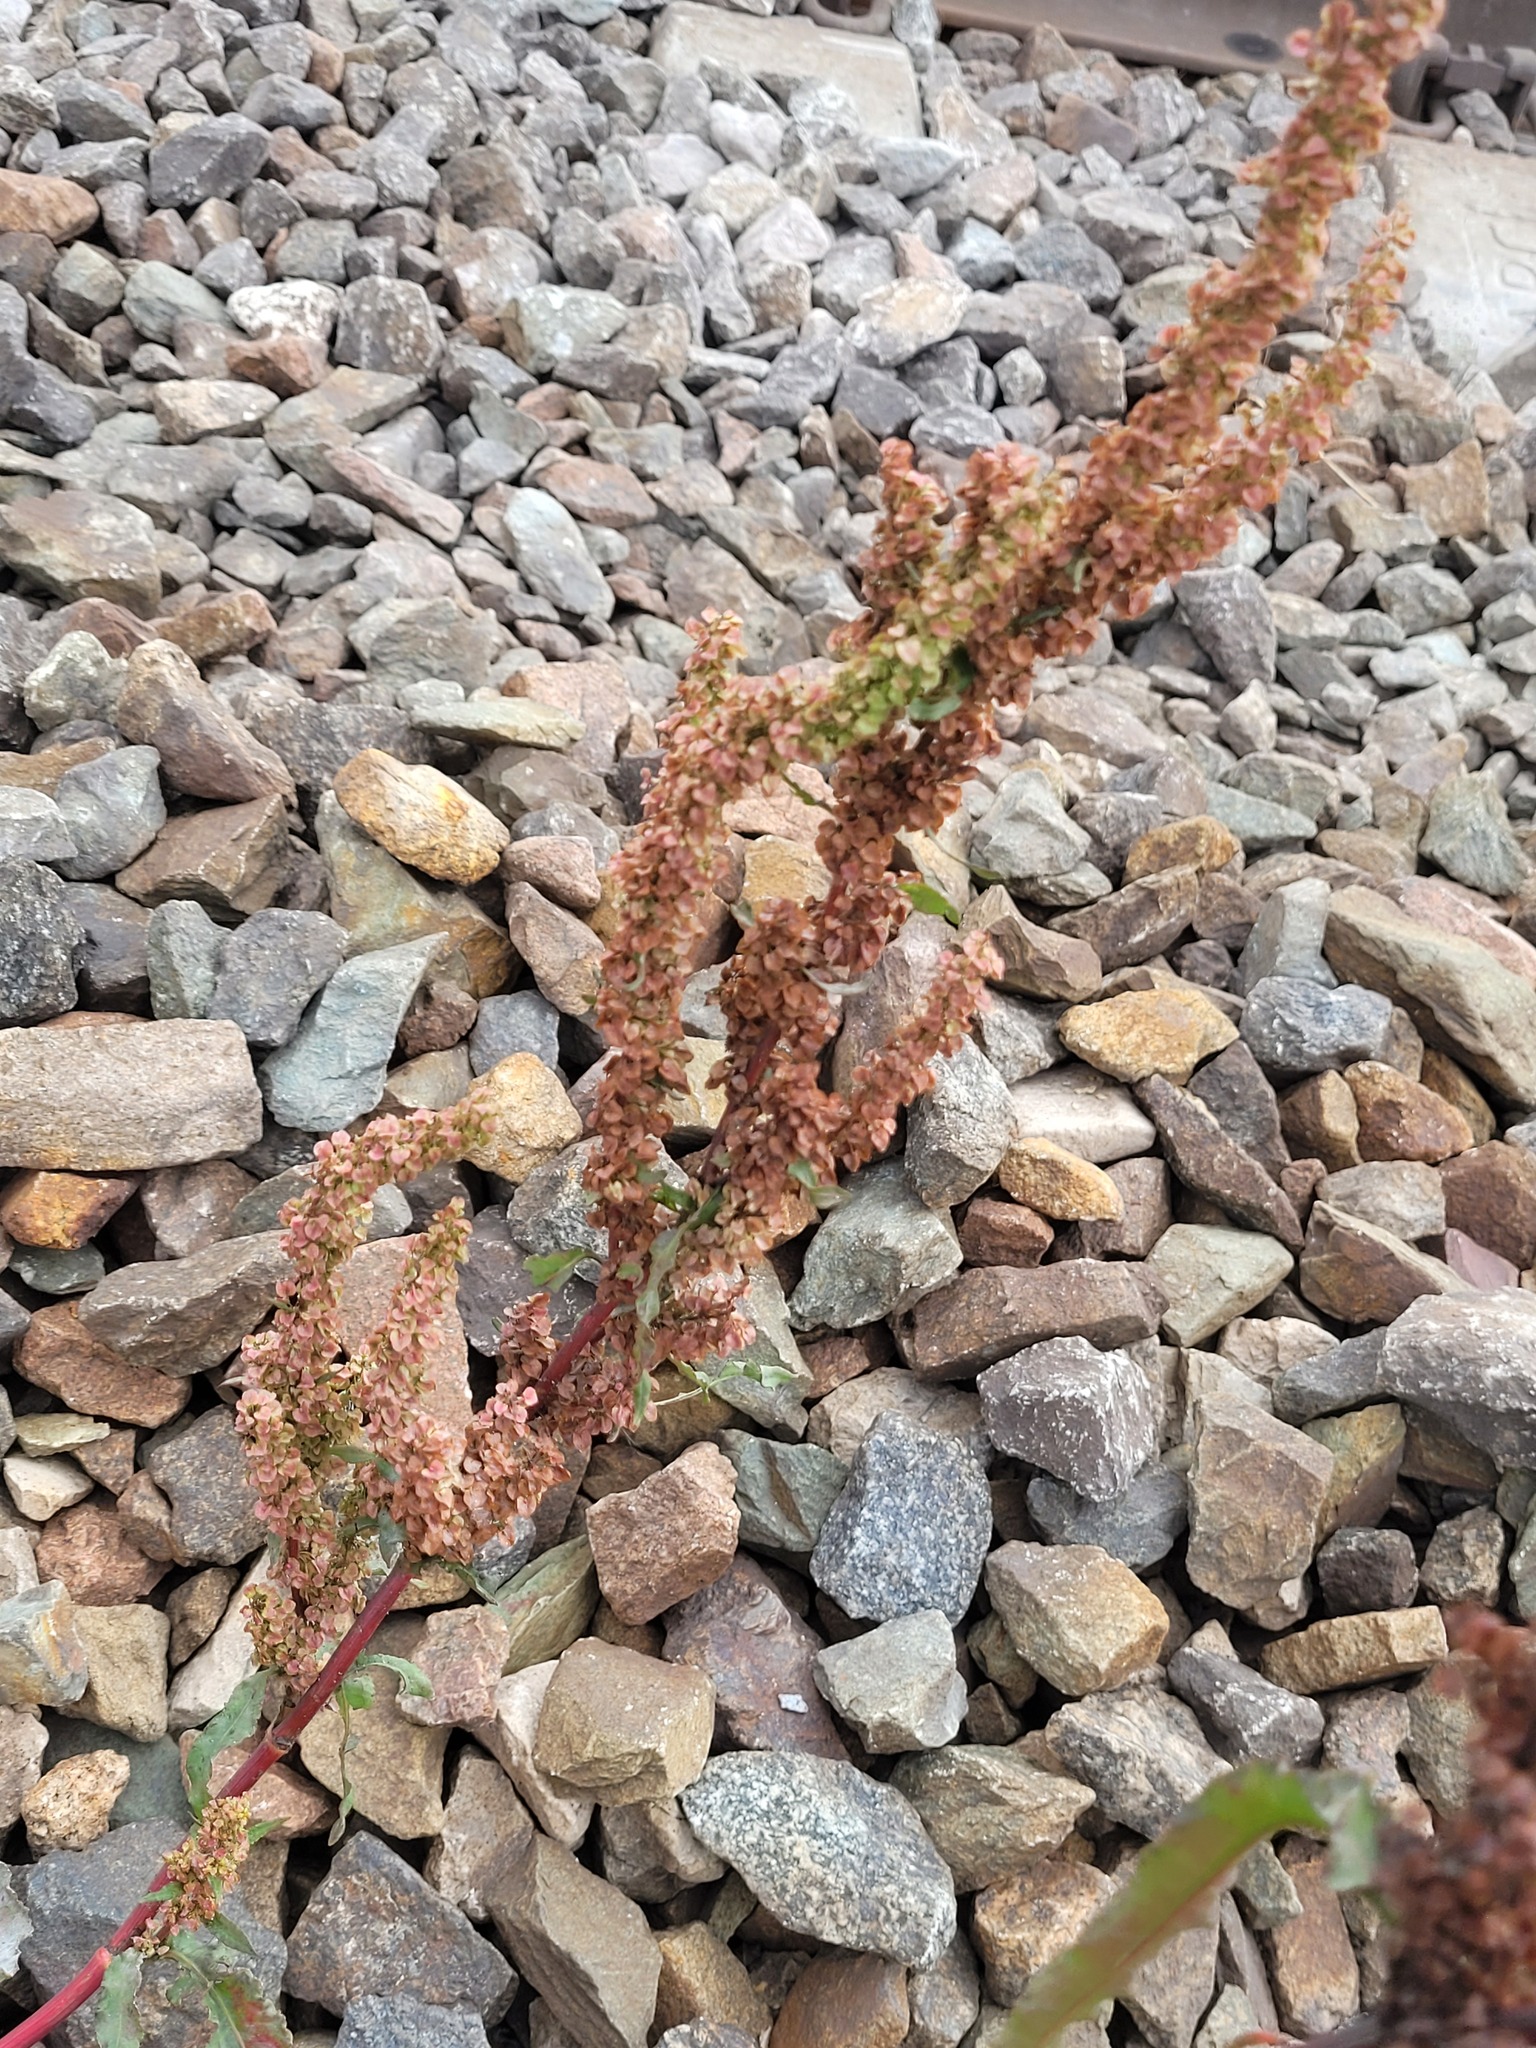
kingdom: Plantae
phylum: Tracheophyta
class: Magnoliopsida
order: Caryophyllales
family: Polygonaceae
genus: Rumex
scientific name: Rumex pseudonatronatus
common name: Field dock
